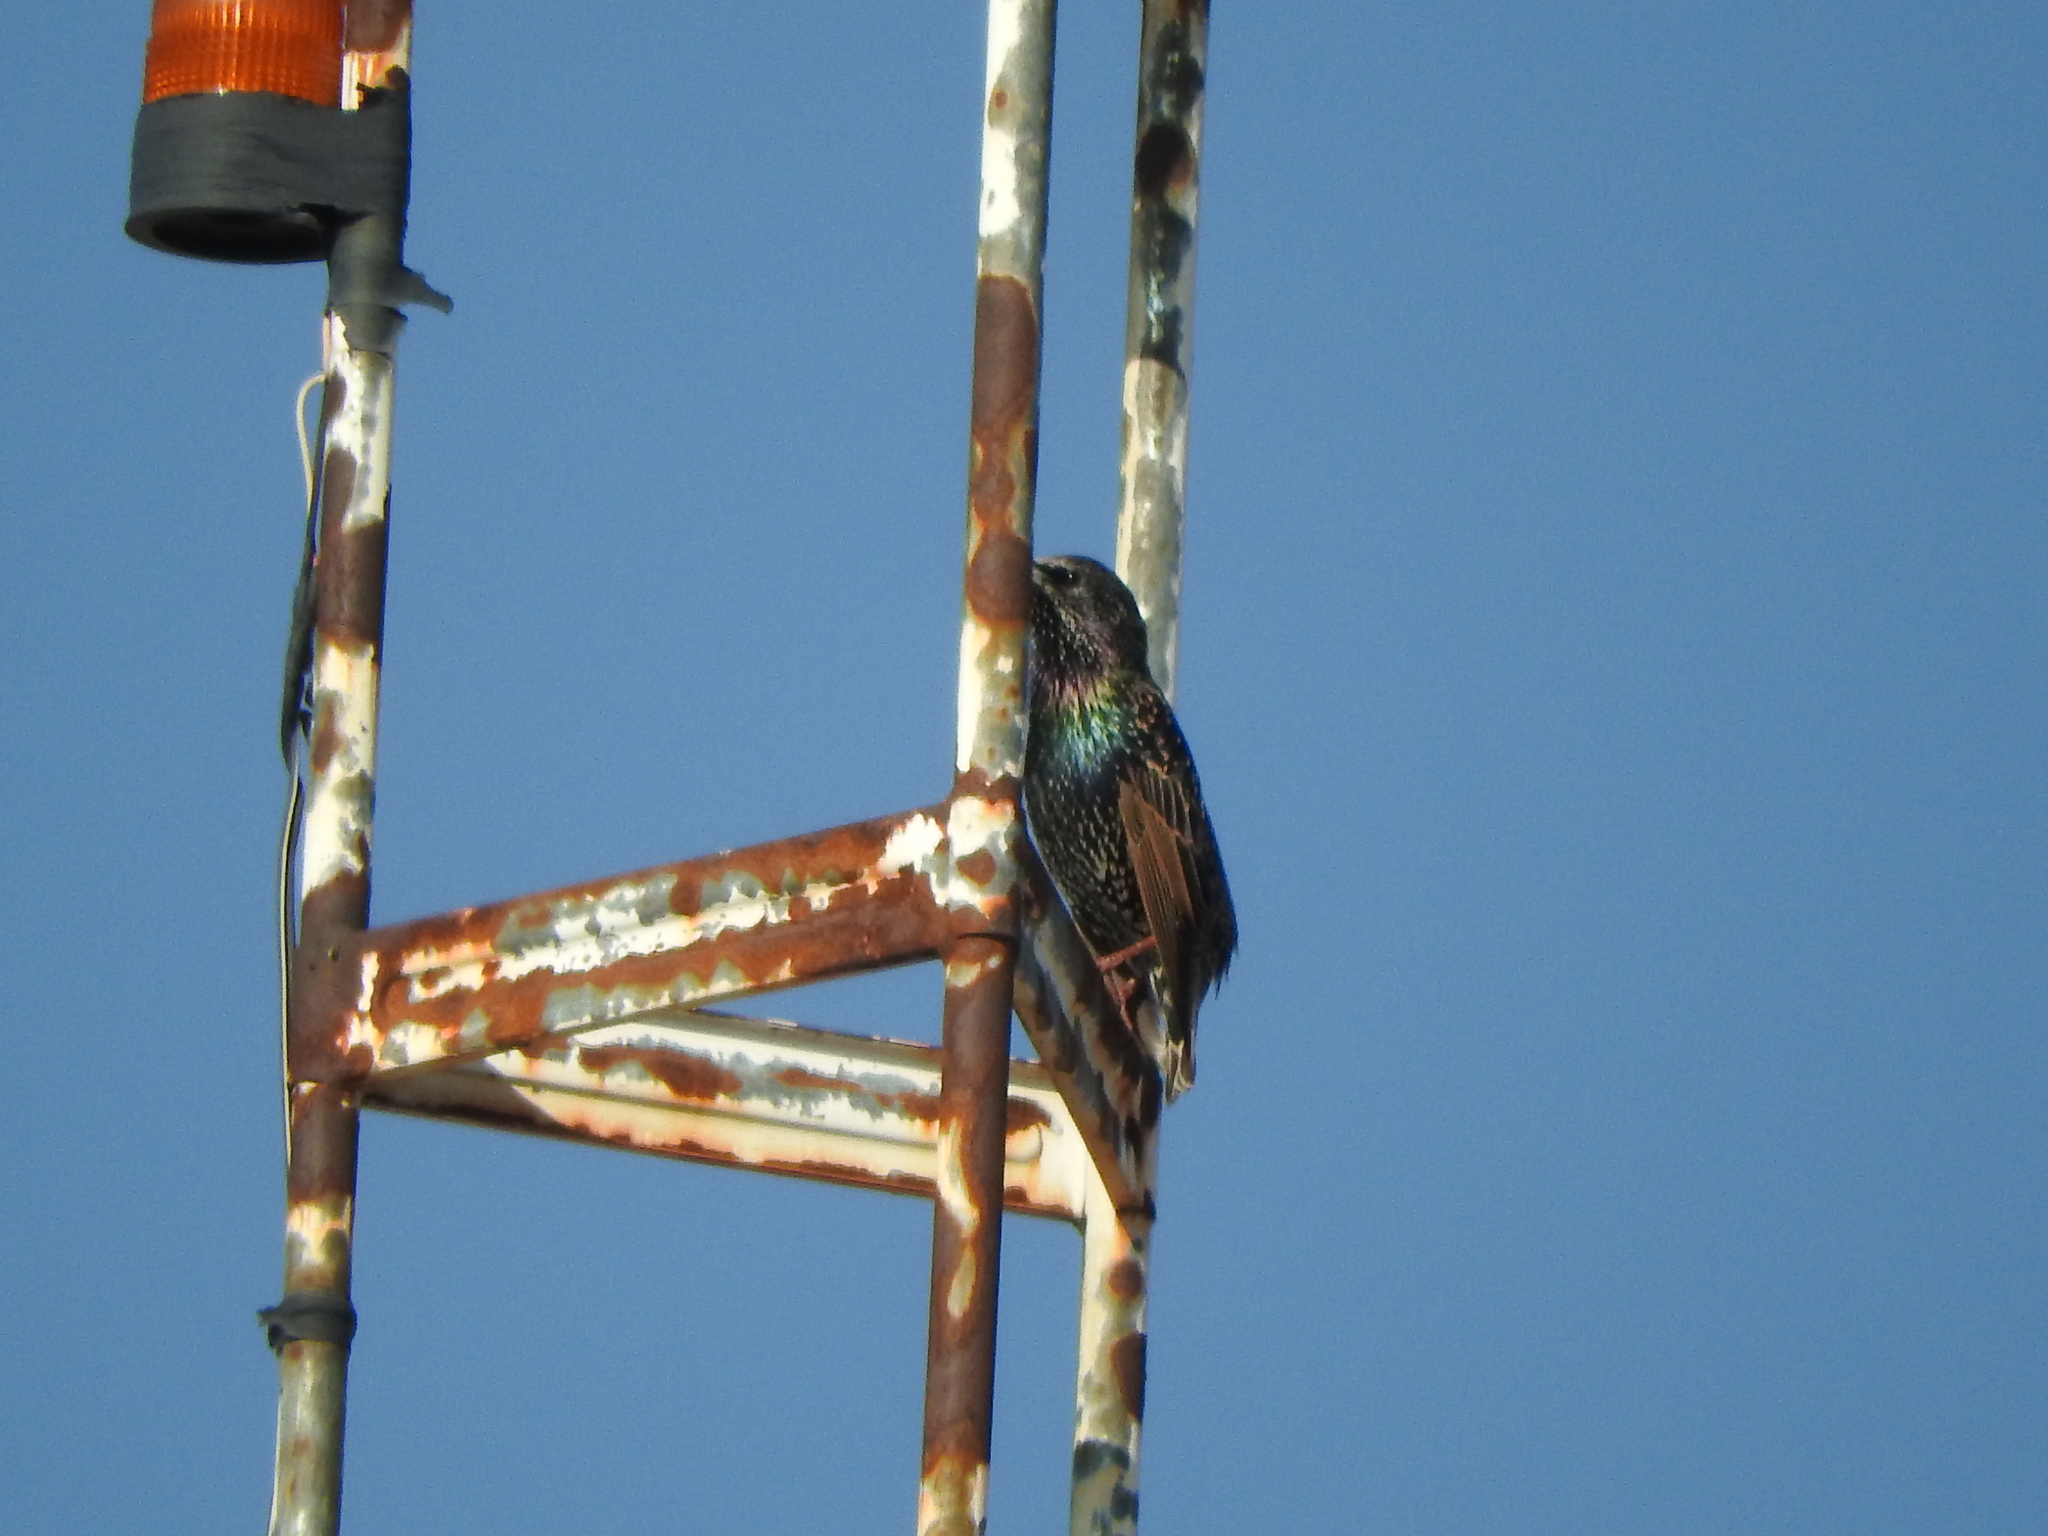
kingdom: Animalia
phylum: Chordata
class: Aves
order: Passeriformes
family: Sturnidae
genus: Sturnus
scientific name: Sturnus vulgaris
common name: Common starling
